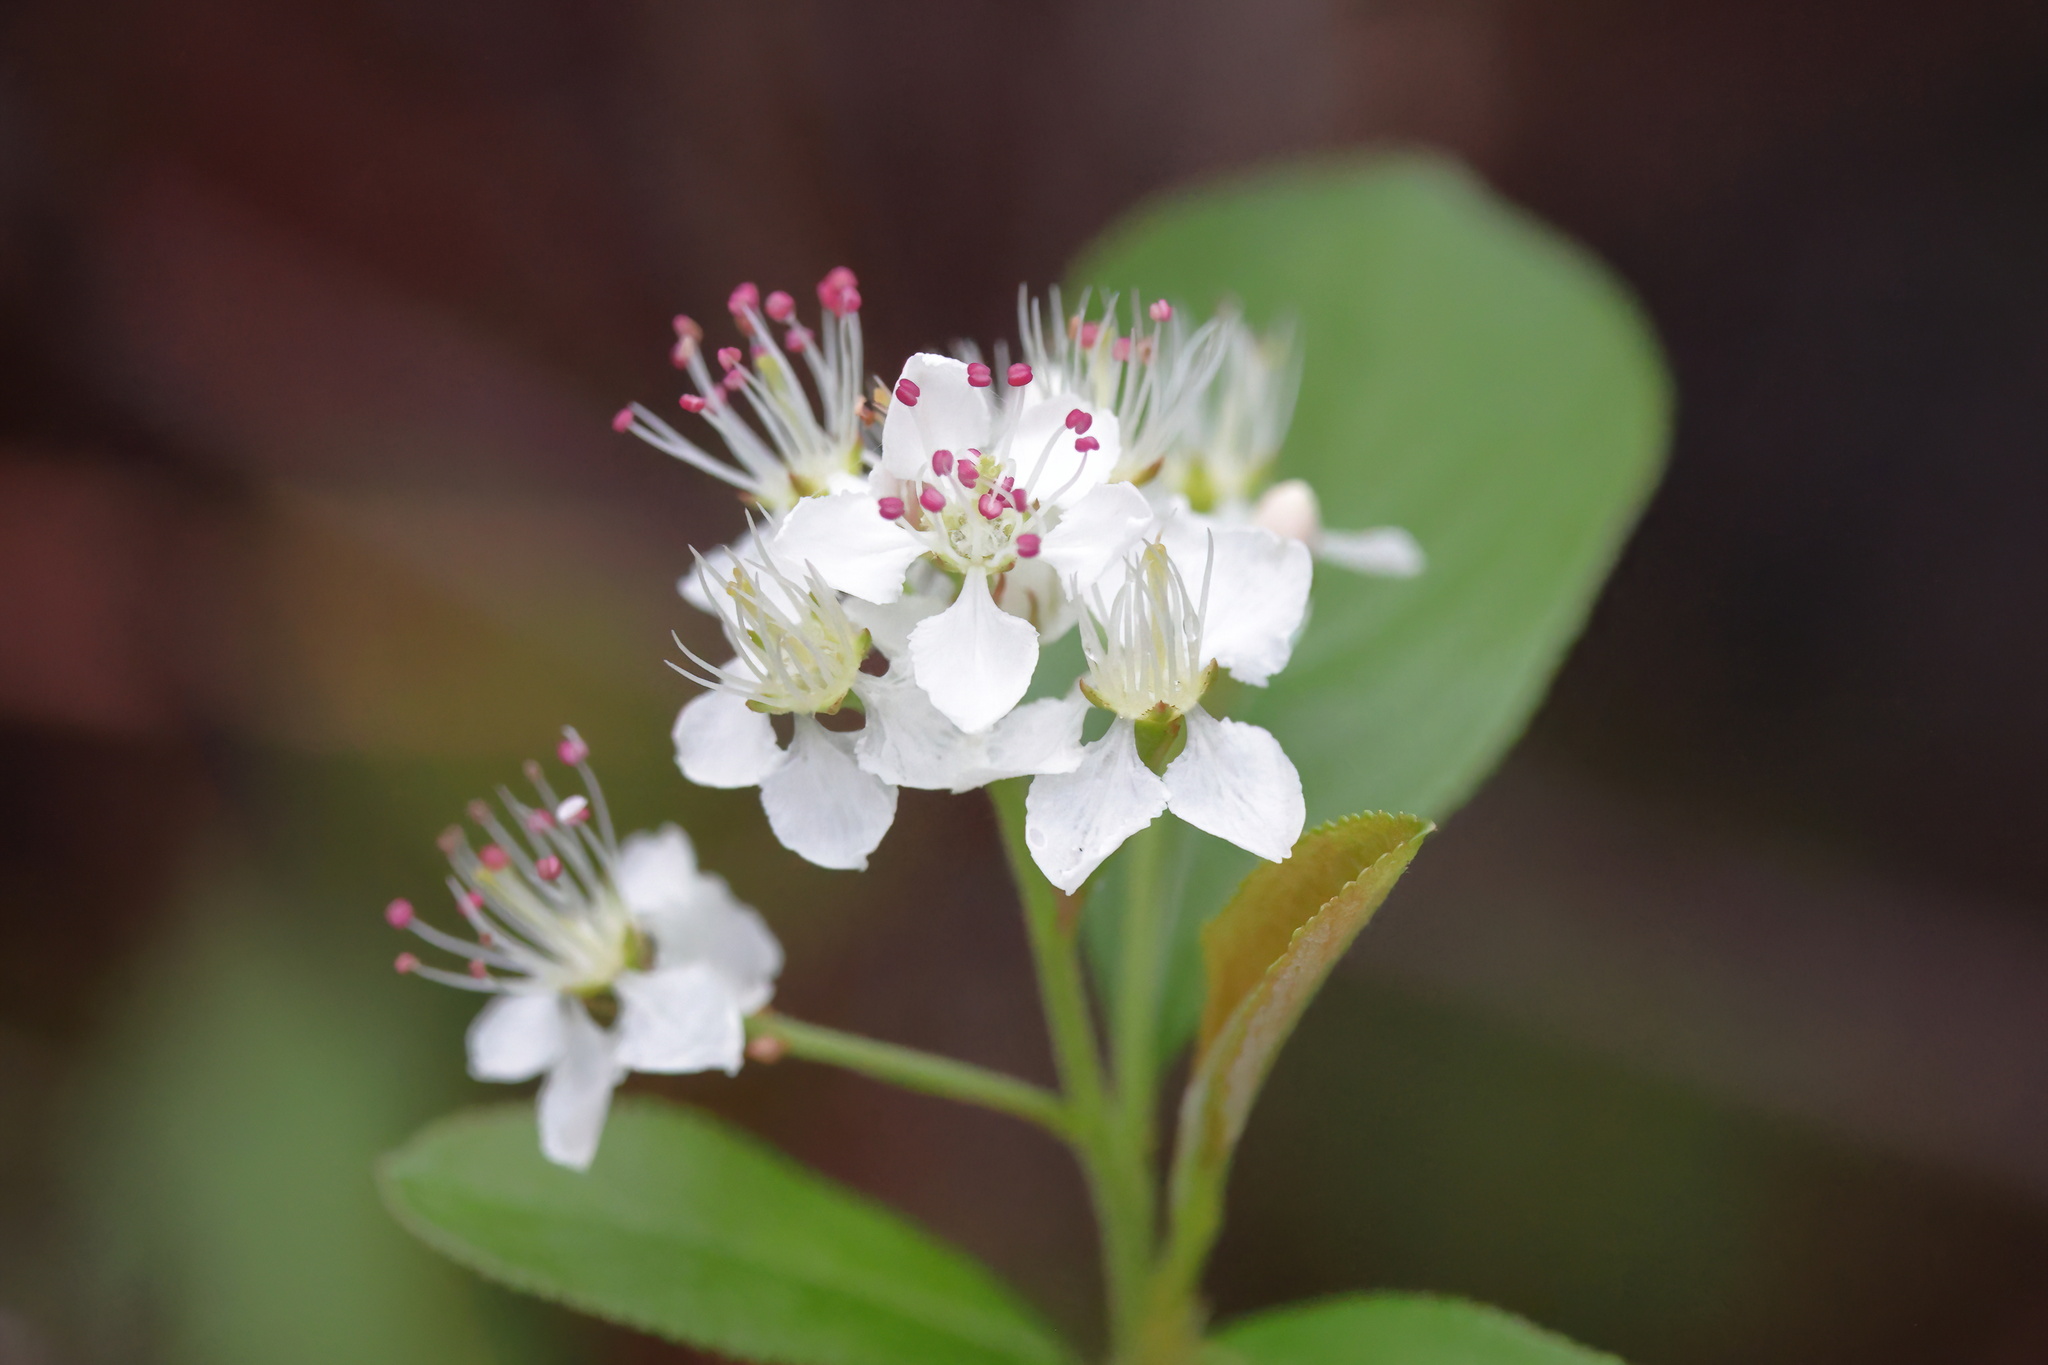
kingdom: Plantae
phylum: Tracheophyta
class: Magnoliopsida
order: Rosales
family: Rosaceae
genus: Aronia
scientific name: Aronia arbutifolia
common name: Red chokeberry
